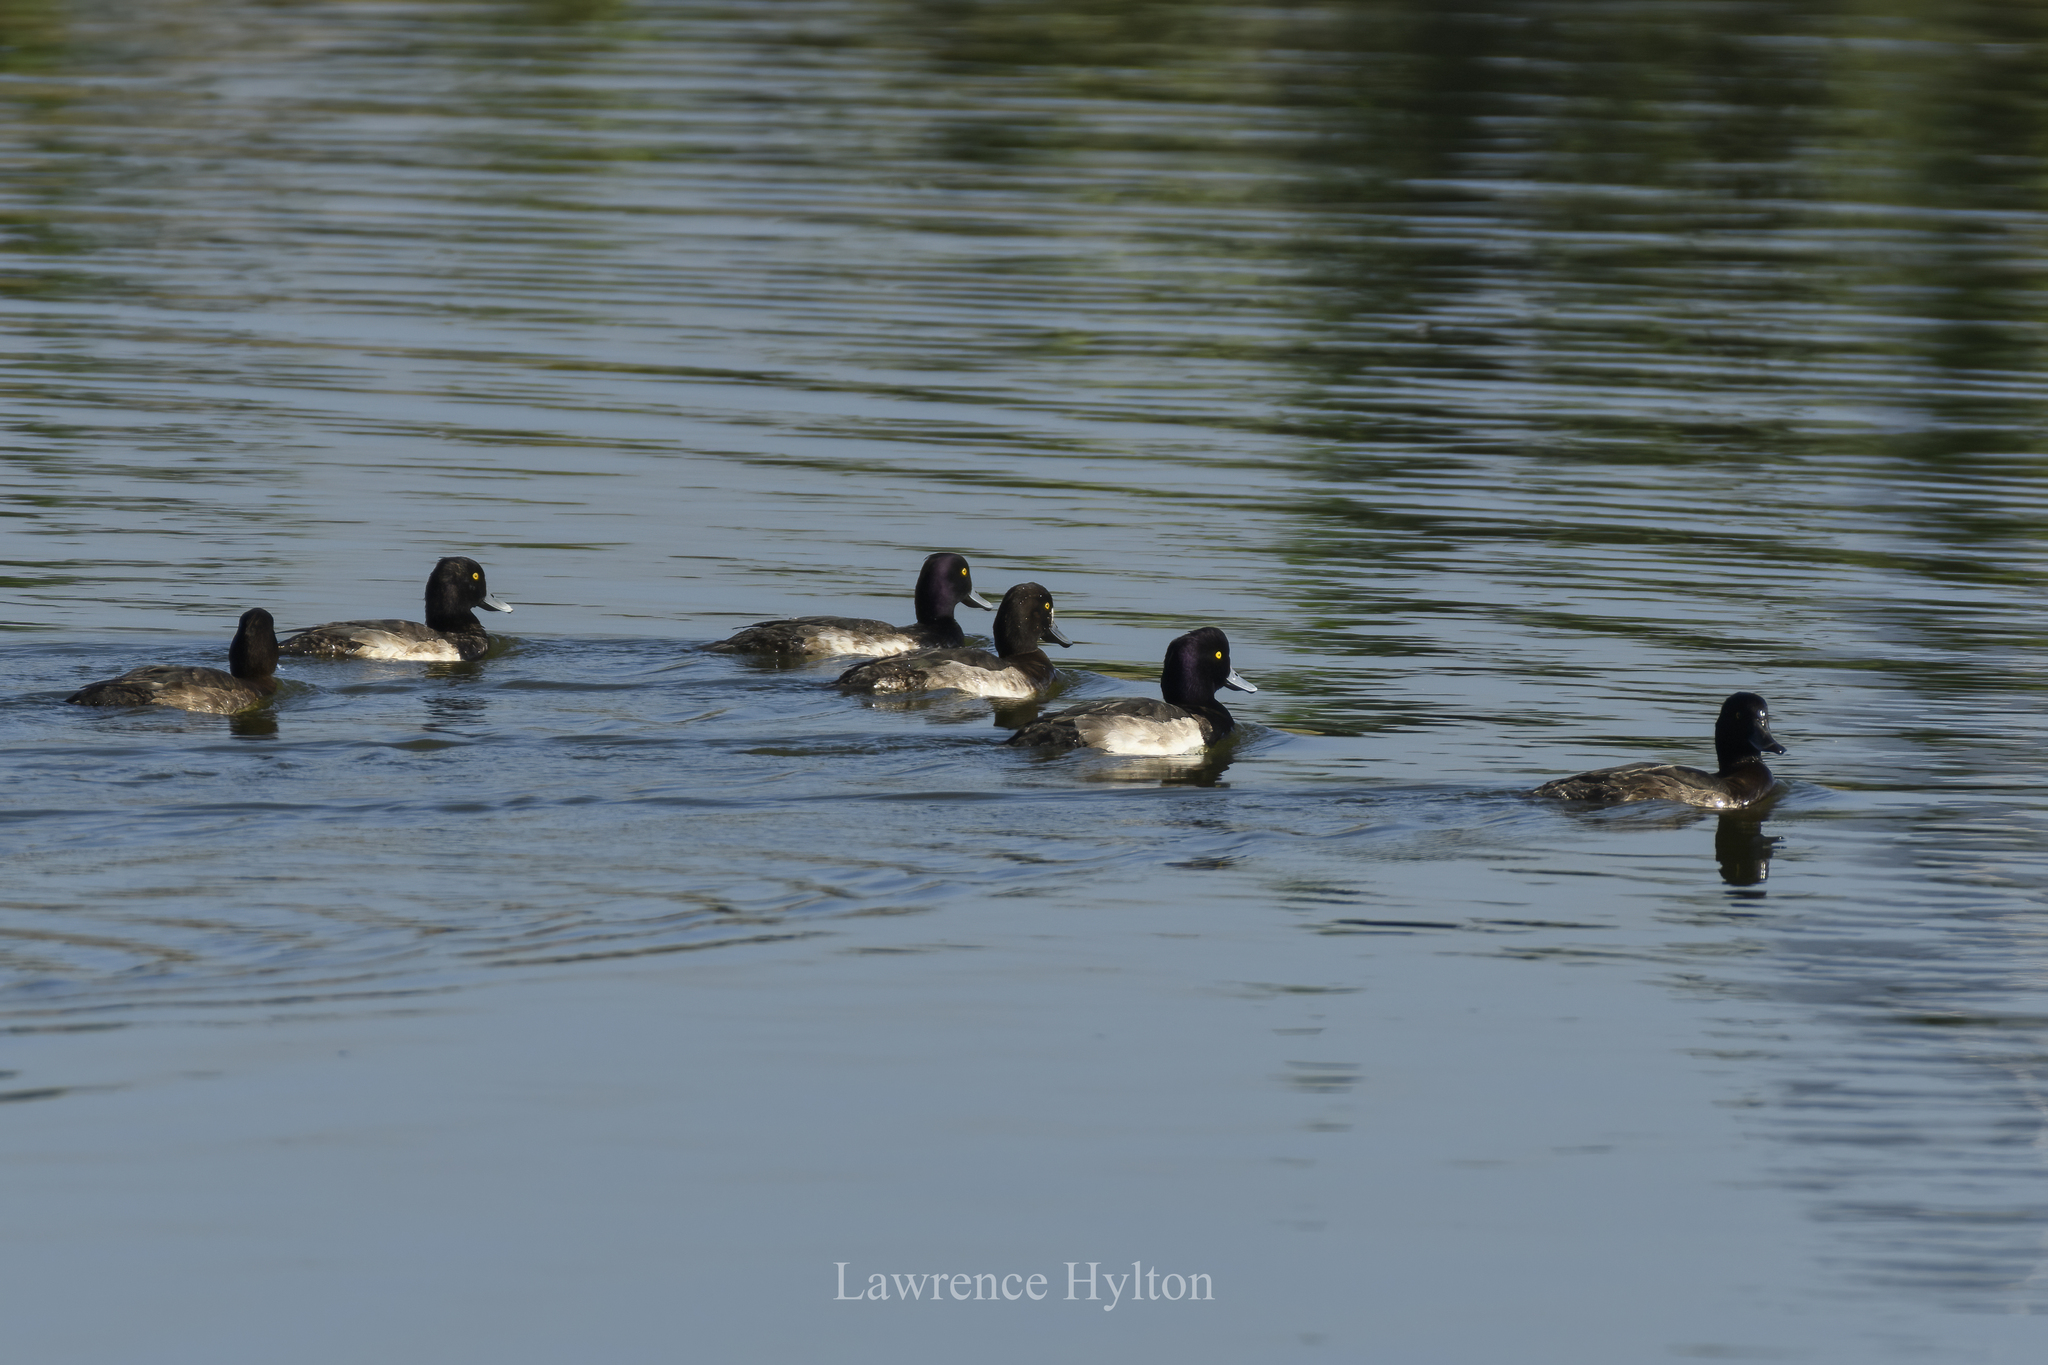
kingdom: Animalia
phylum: Chordata
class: Aves
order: Anseriformes
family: Anatidae
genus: Aythya
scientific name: Aythya fuligula
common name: Tufted duck
